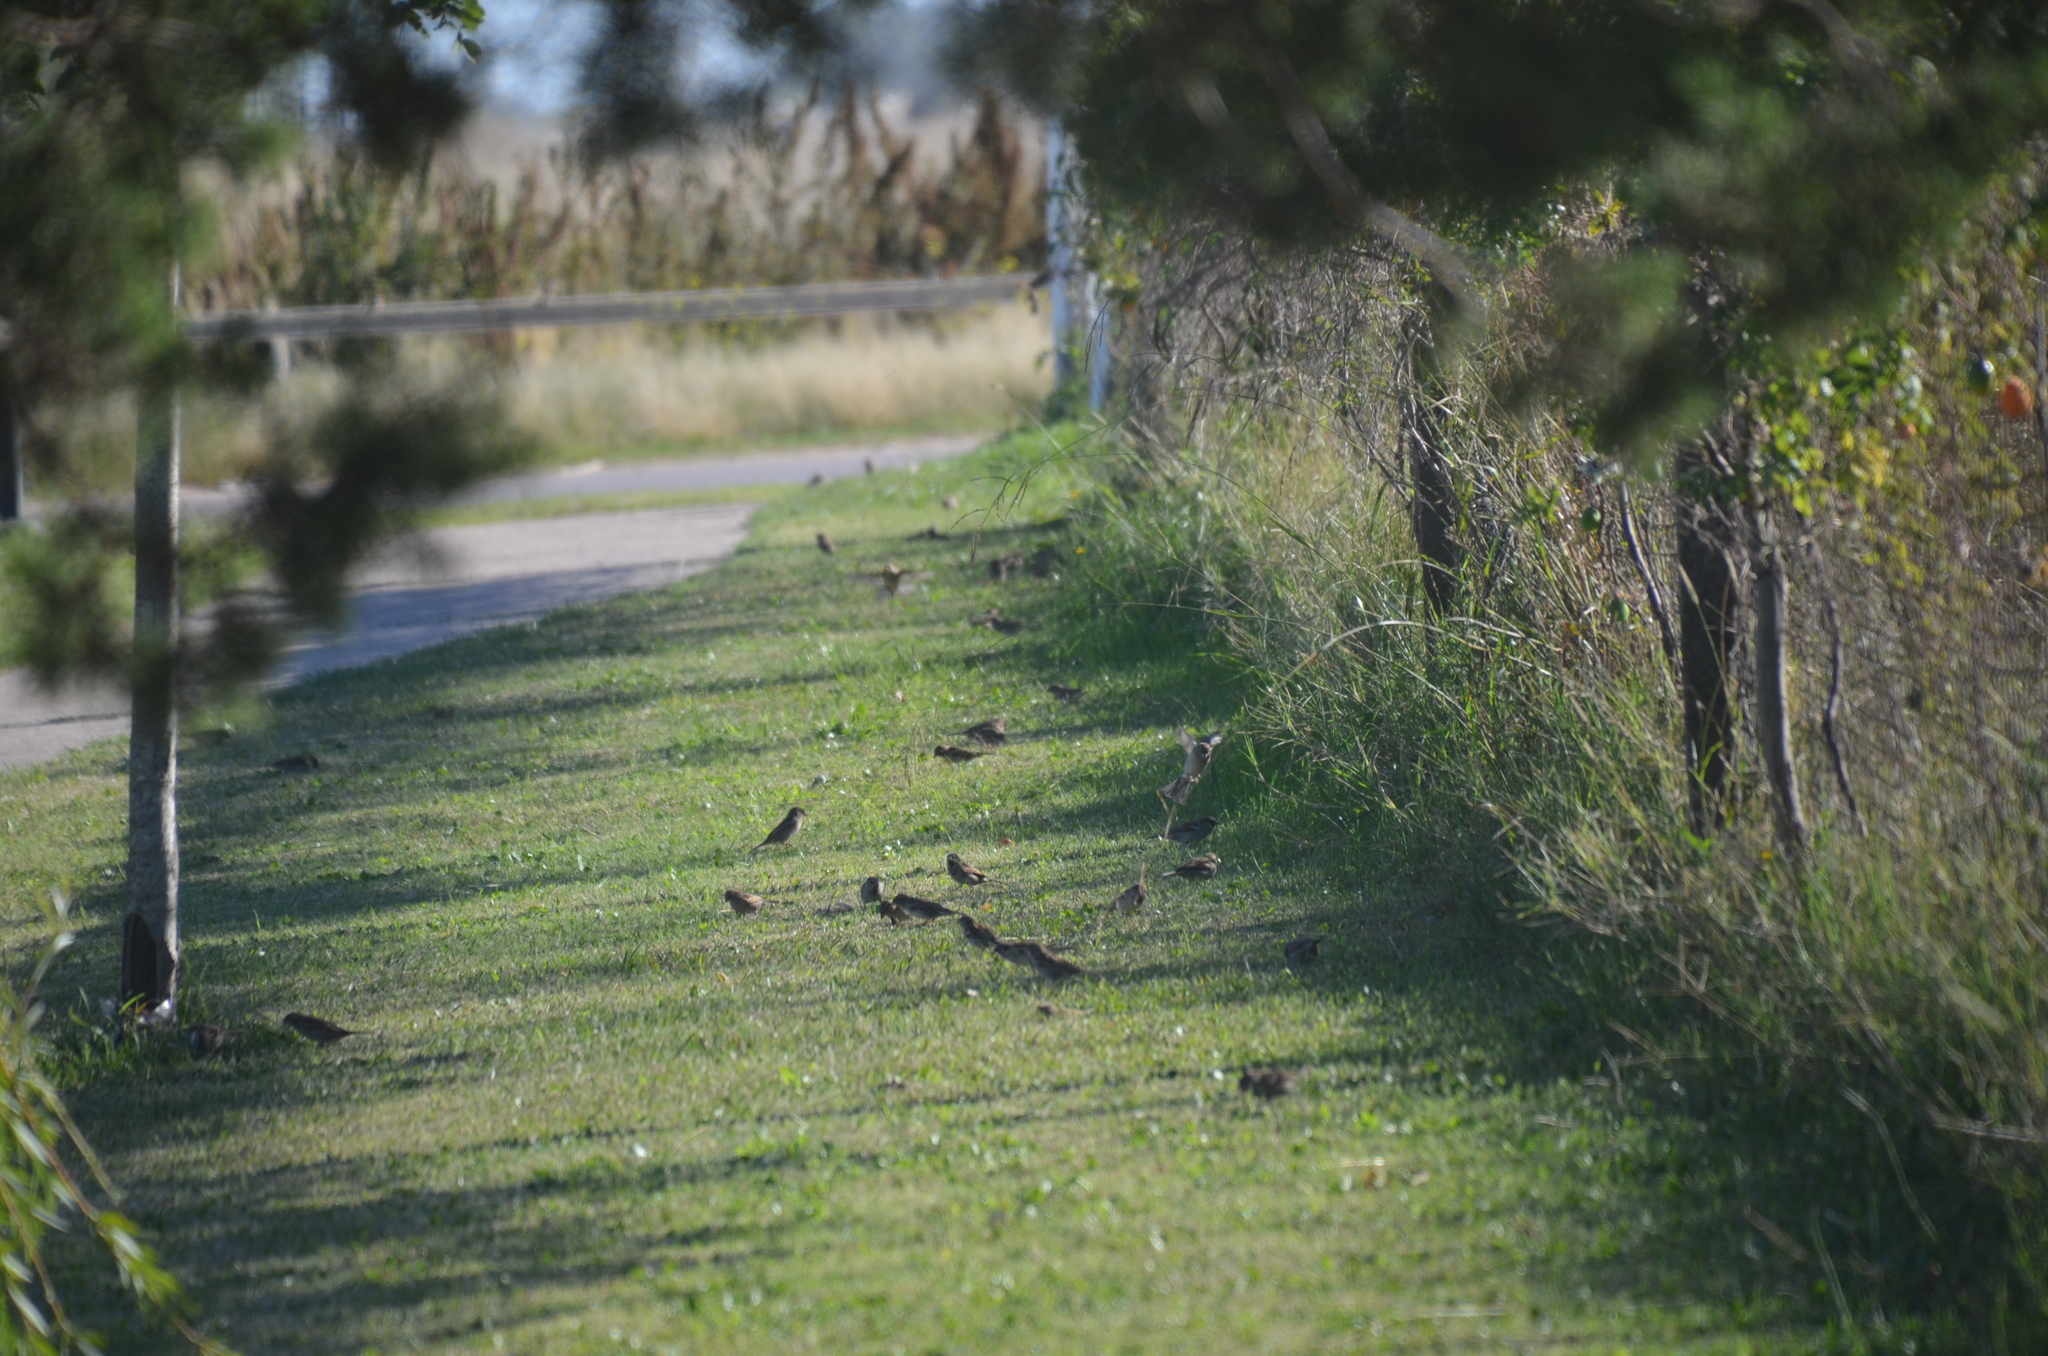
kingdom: Animalia
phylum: Chordata
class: Aves
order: Passeriformes
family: Passeridae
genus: Passer
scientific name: Passer domesticus
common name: House sparrow
